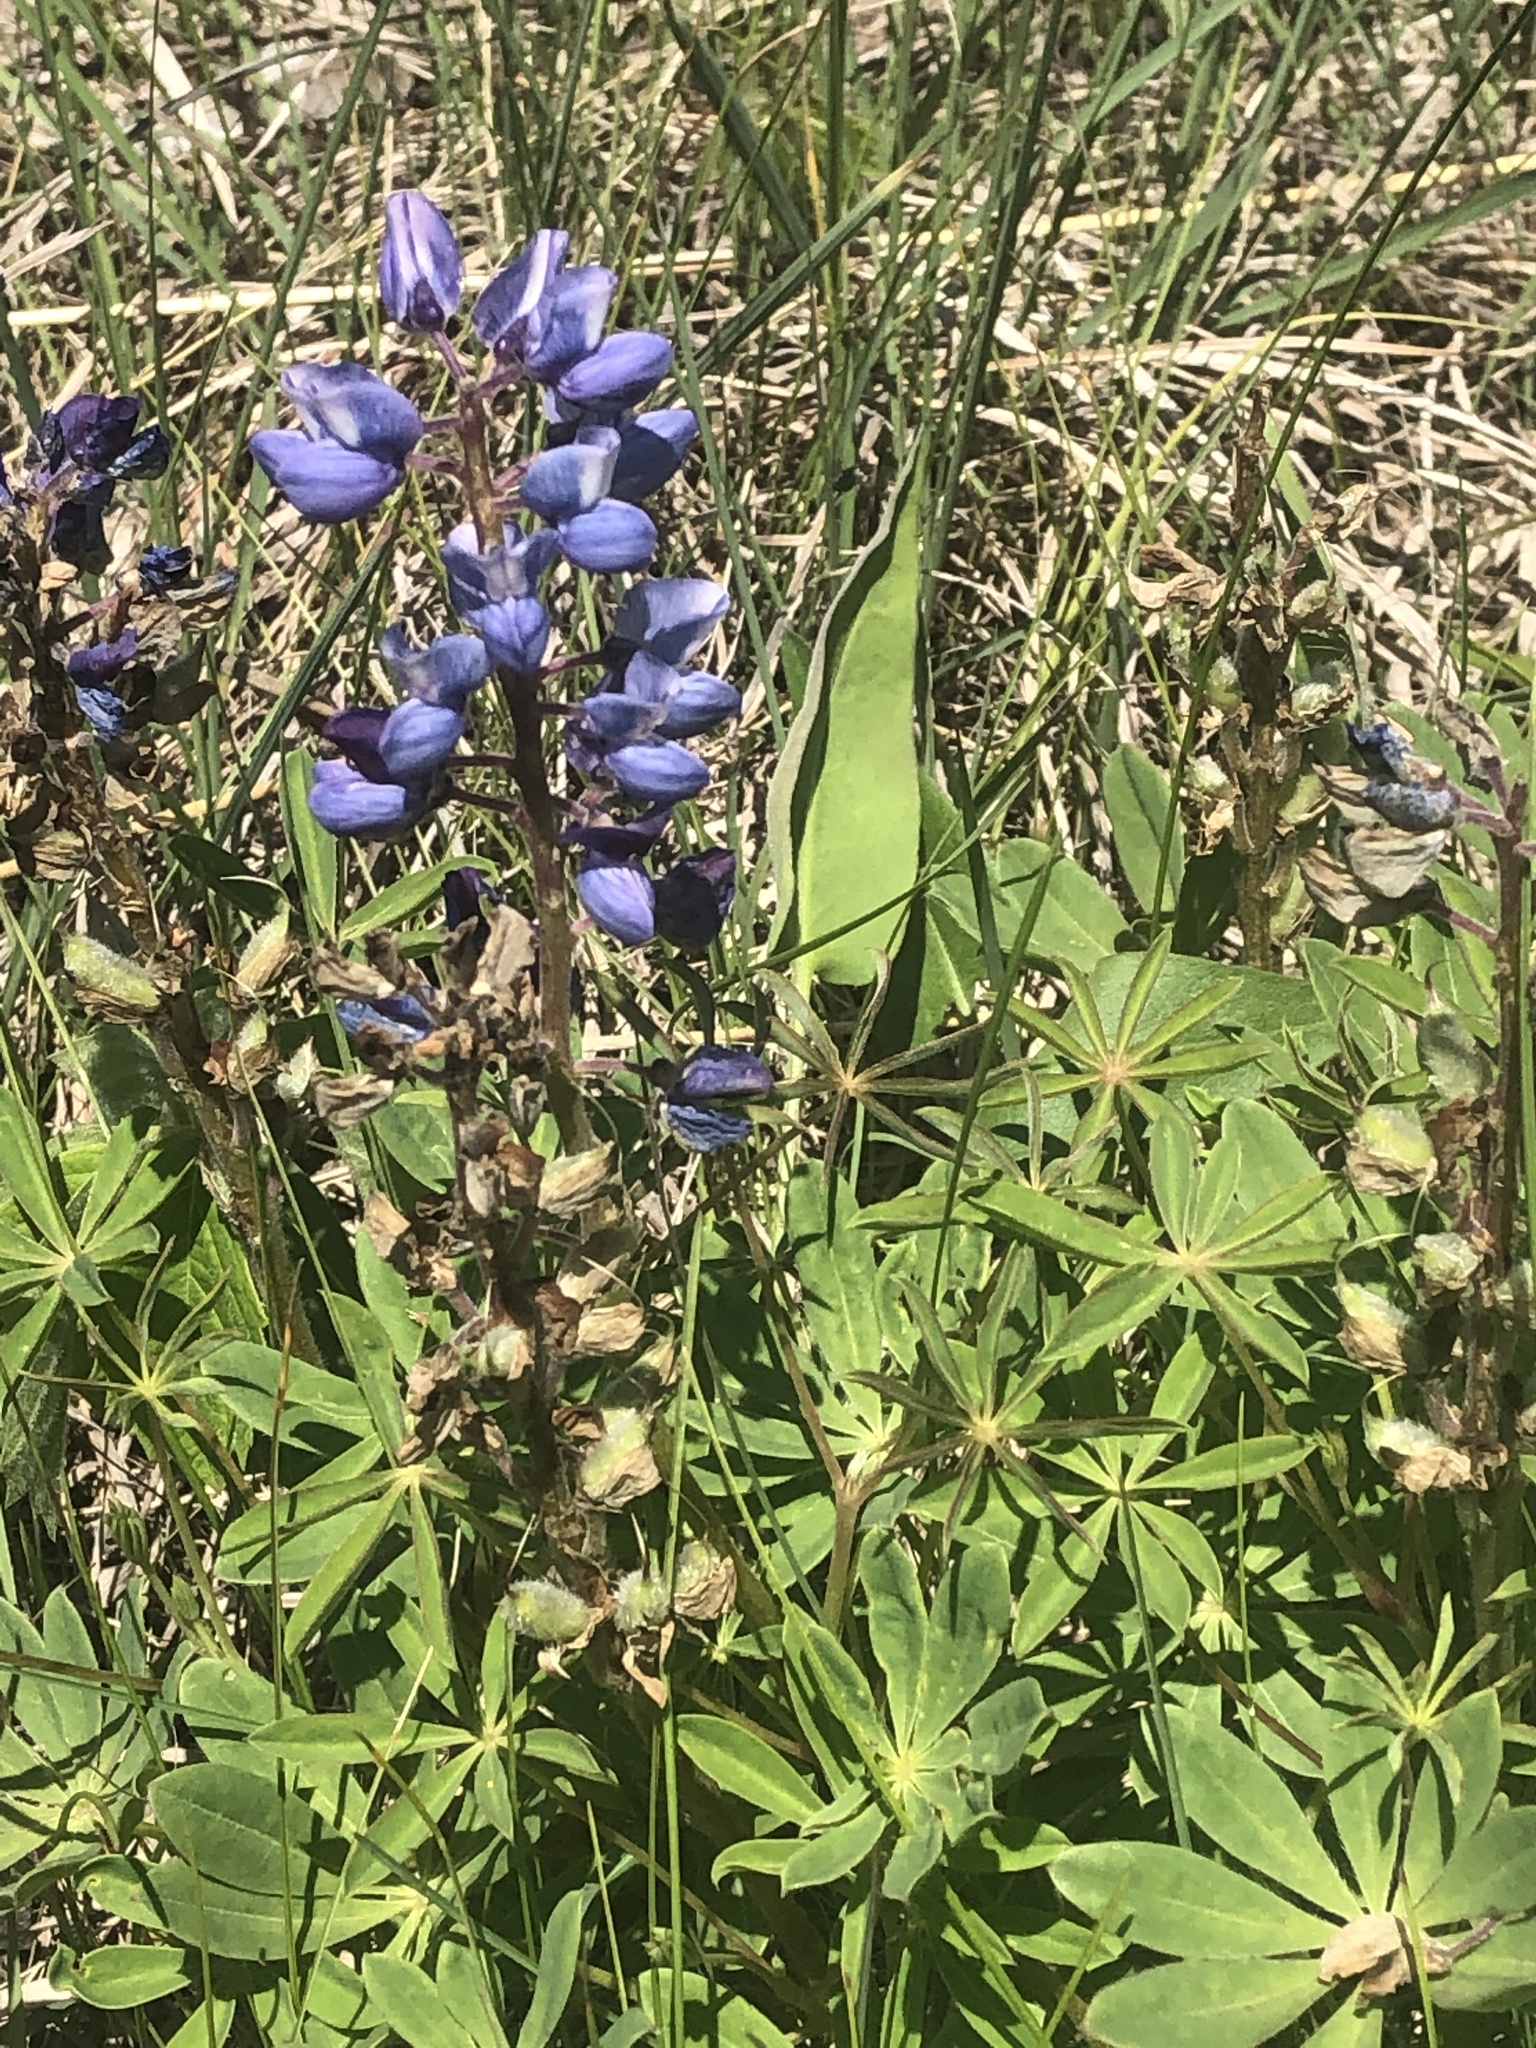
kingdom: Plantae
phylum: Tracheophyta
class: Magnoliopsida
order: Fabales
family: Fabaceae
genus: Lupinus
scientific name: Lupinus perennis
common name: Sundial lupine
